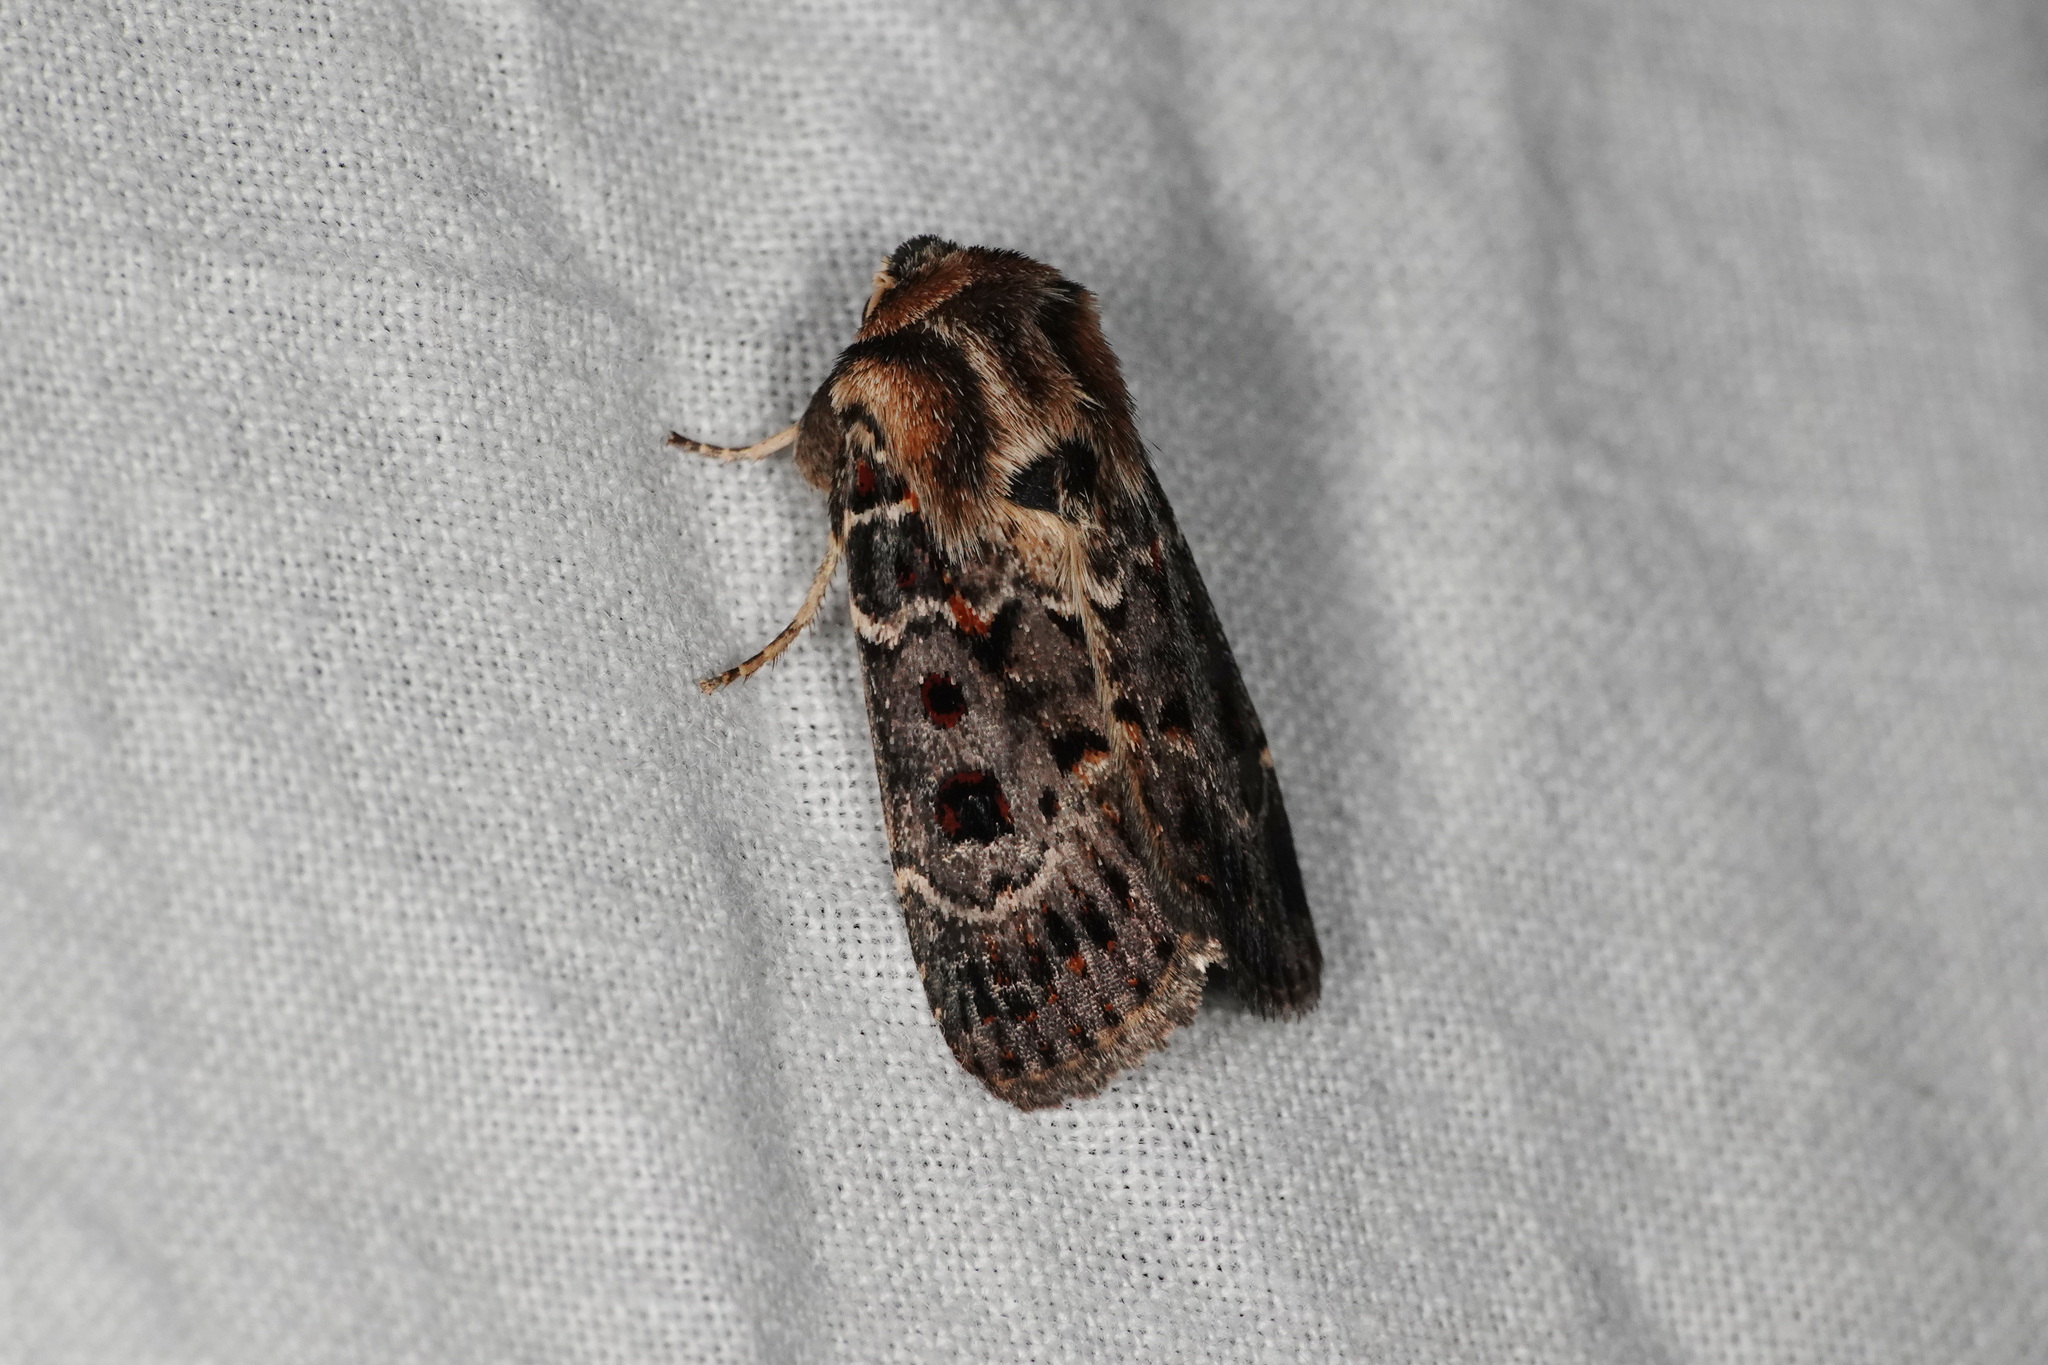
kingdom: Animalia
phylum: Arthropoda
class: Insecta
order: Lepidoptera
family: Noctuidae
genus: Proteuxoa
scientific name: Proteuxoa sanguinipuncta
